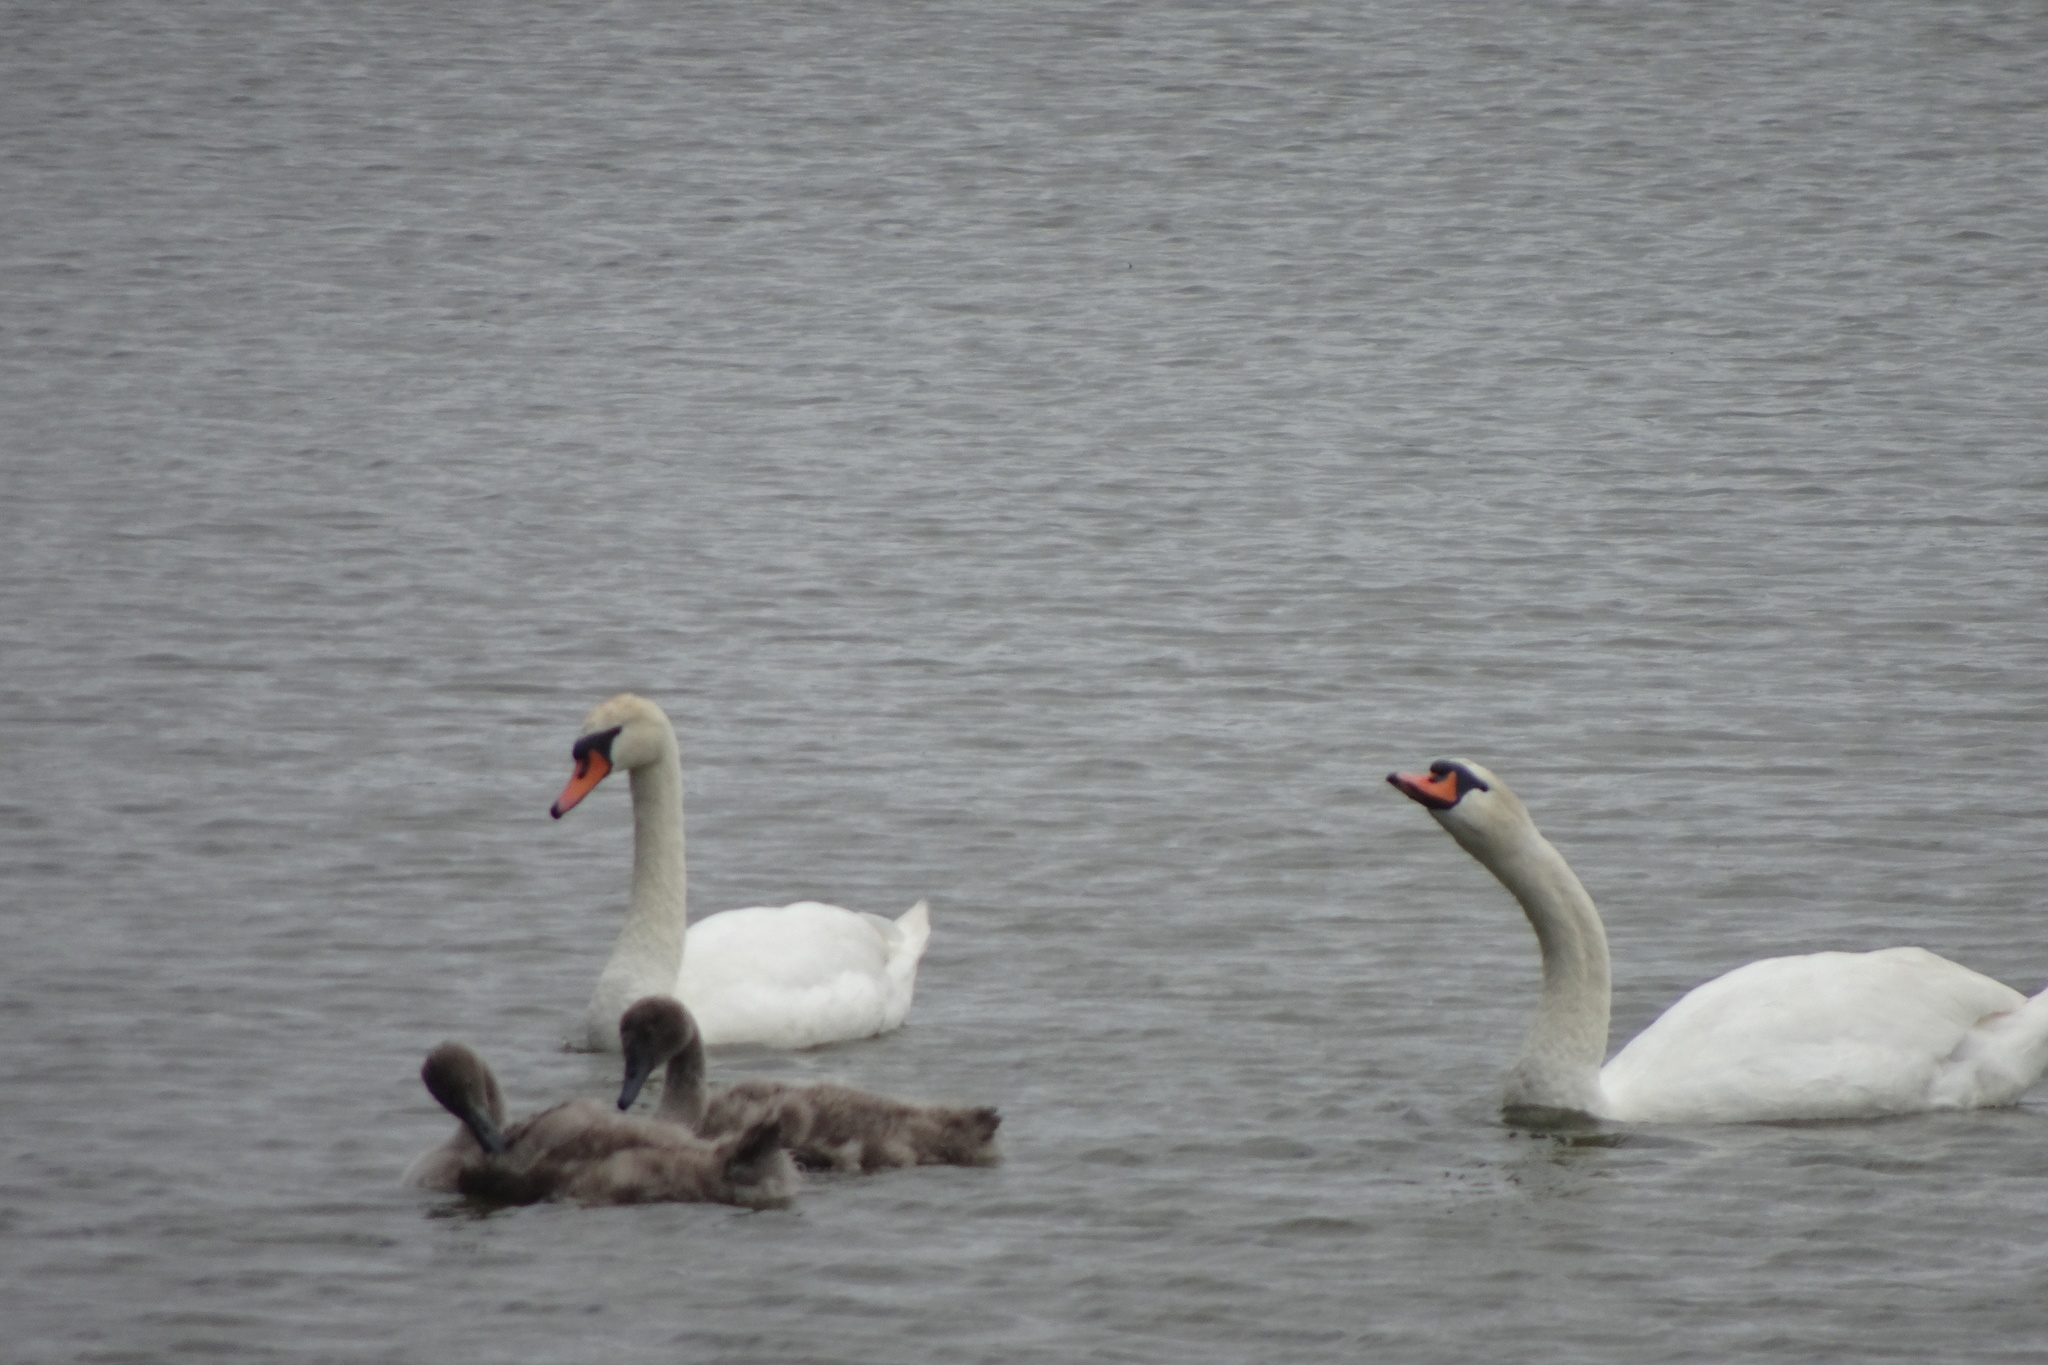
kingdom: Animalia
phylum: Chordata
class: Aves
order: Anseriformes
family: Anatidae
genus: Cygnus
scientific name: Cygnus olor
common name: Mute swan
